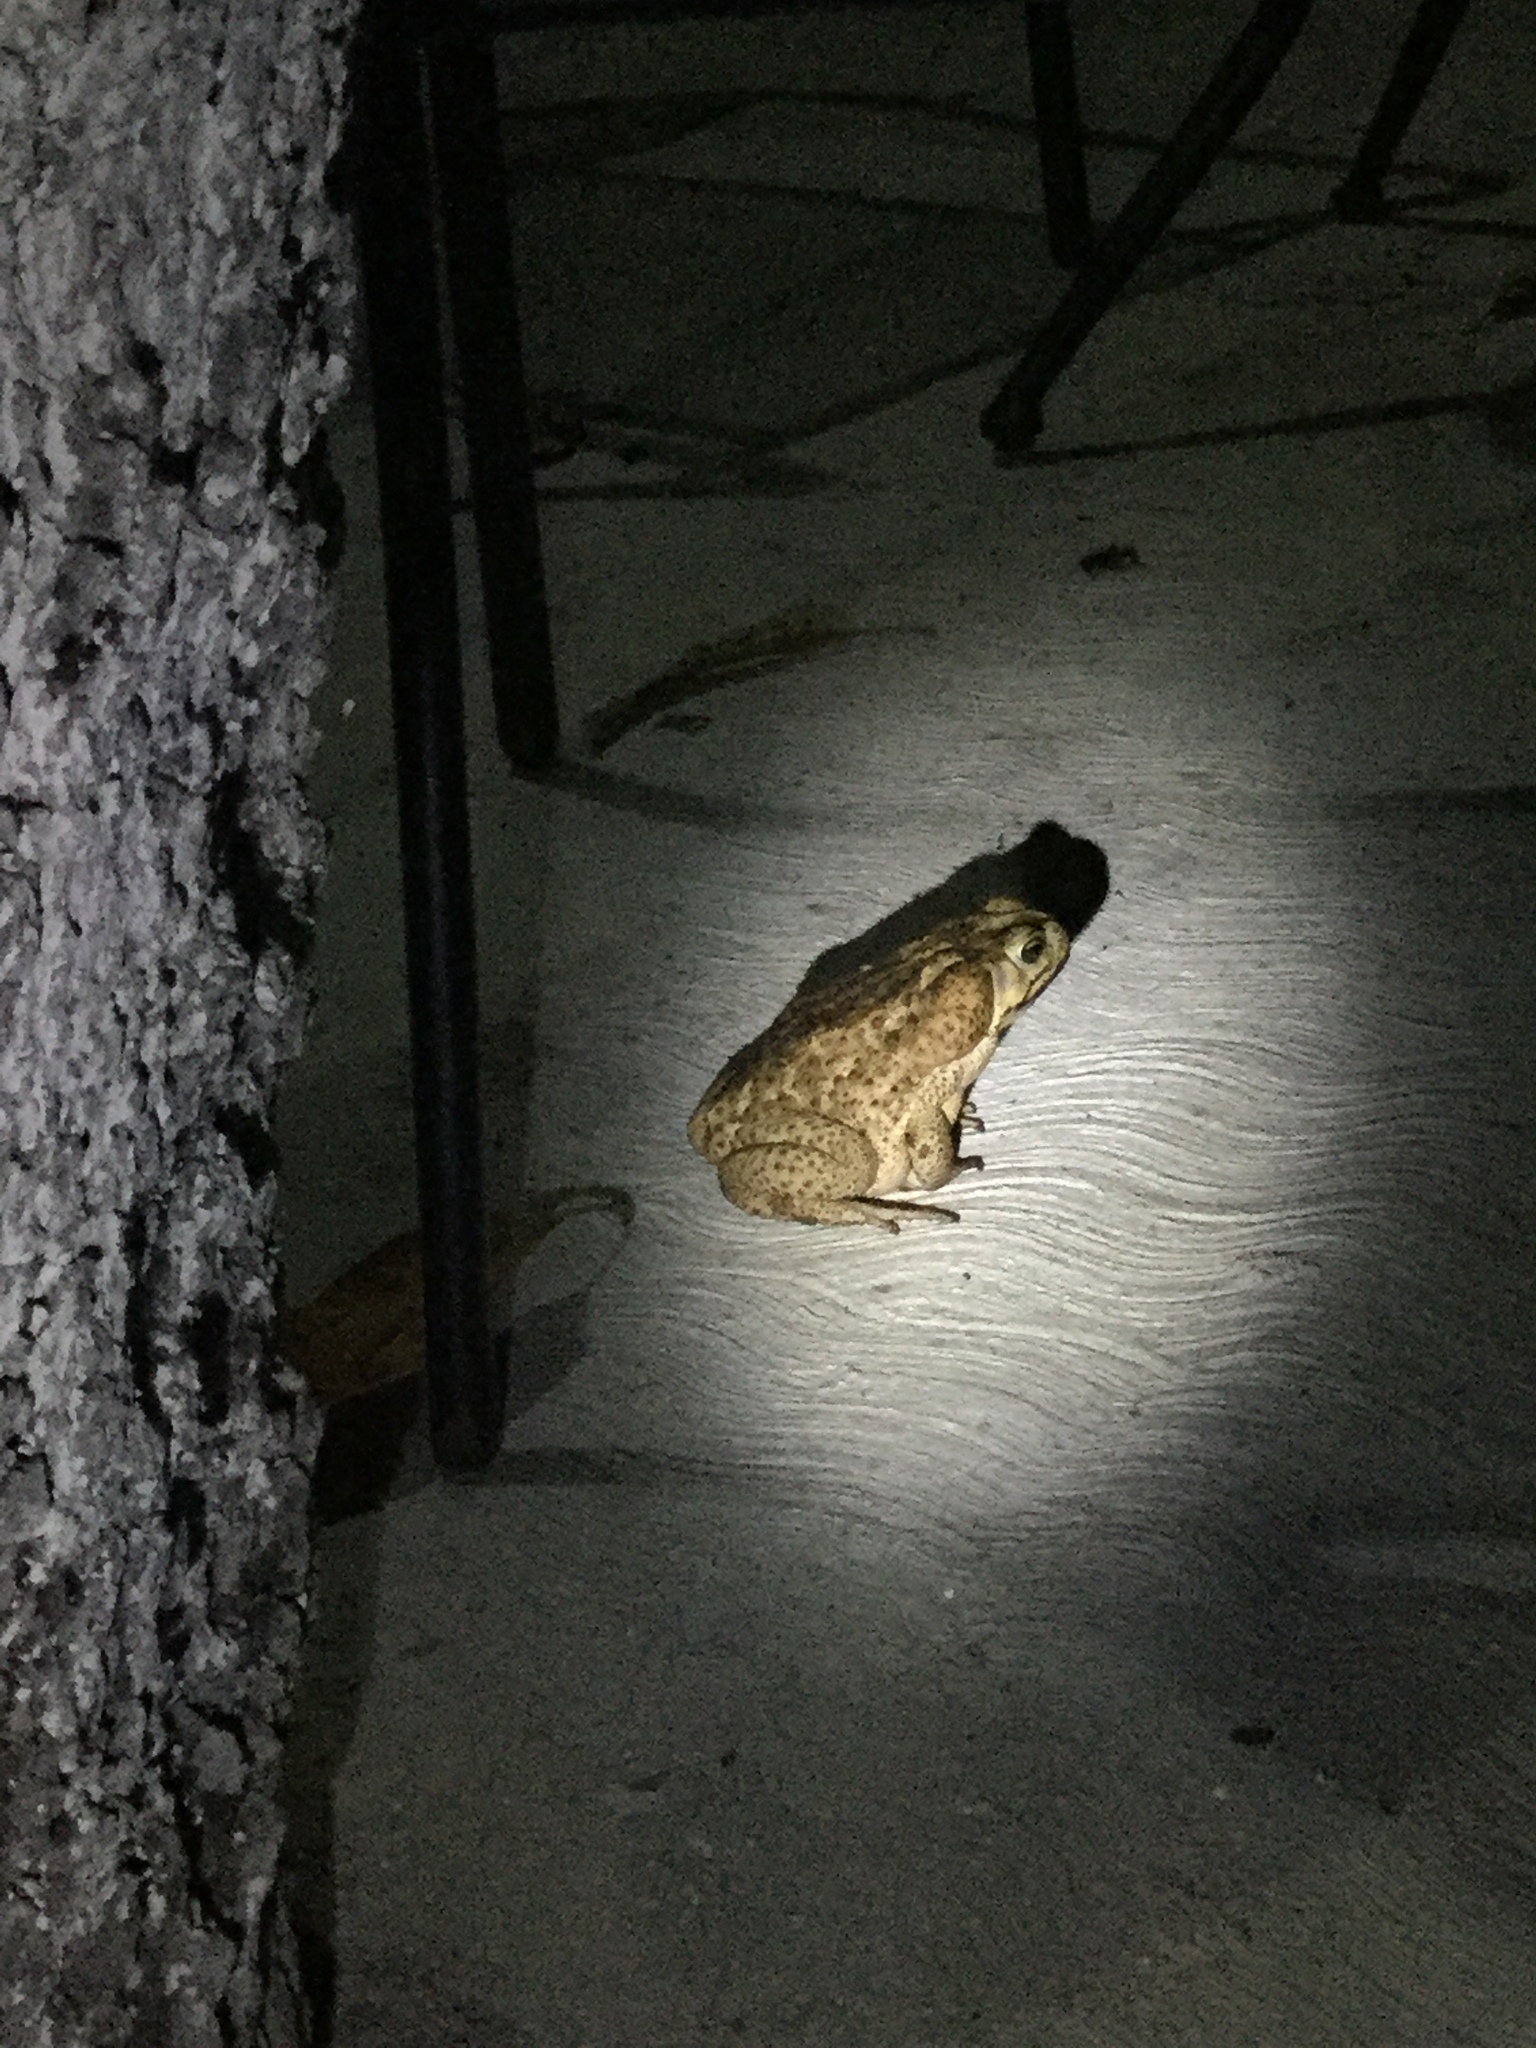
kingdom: Animalia
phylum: Chordata
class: Amphibia
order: Anura
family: Bufonidae
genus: Rhinella
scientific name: Rhinella horribilis
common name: Mesoamerican cane toad
